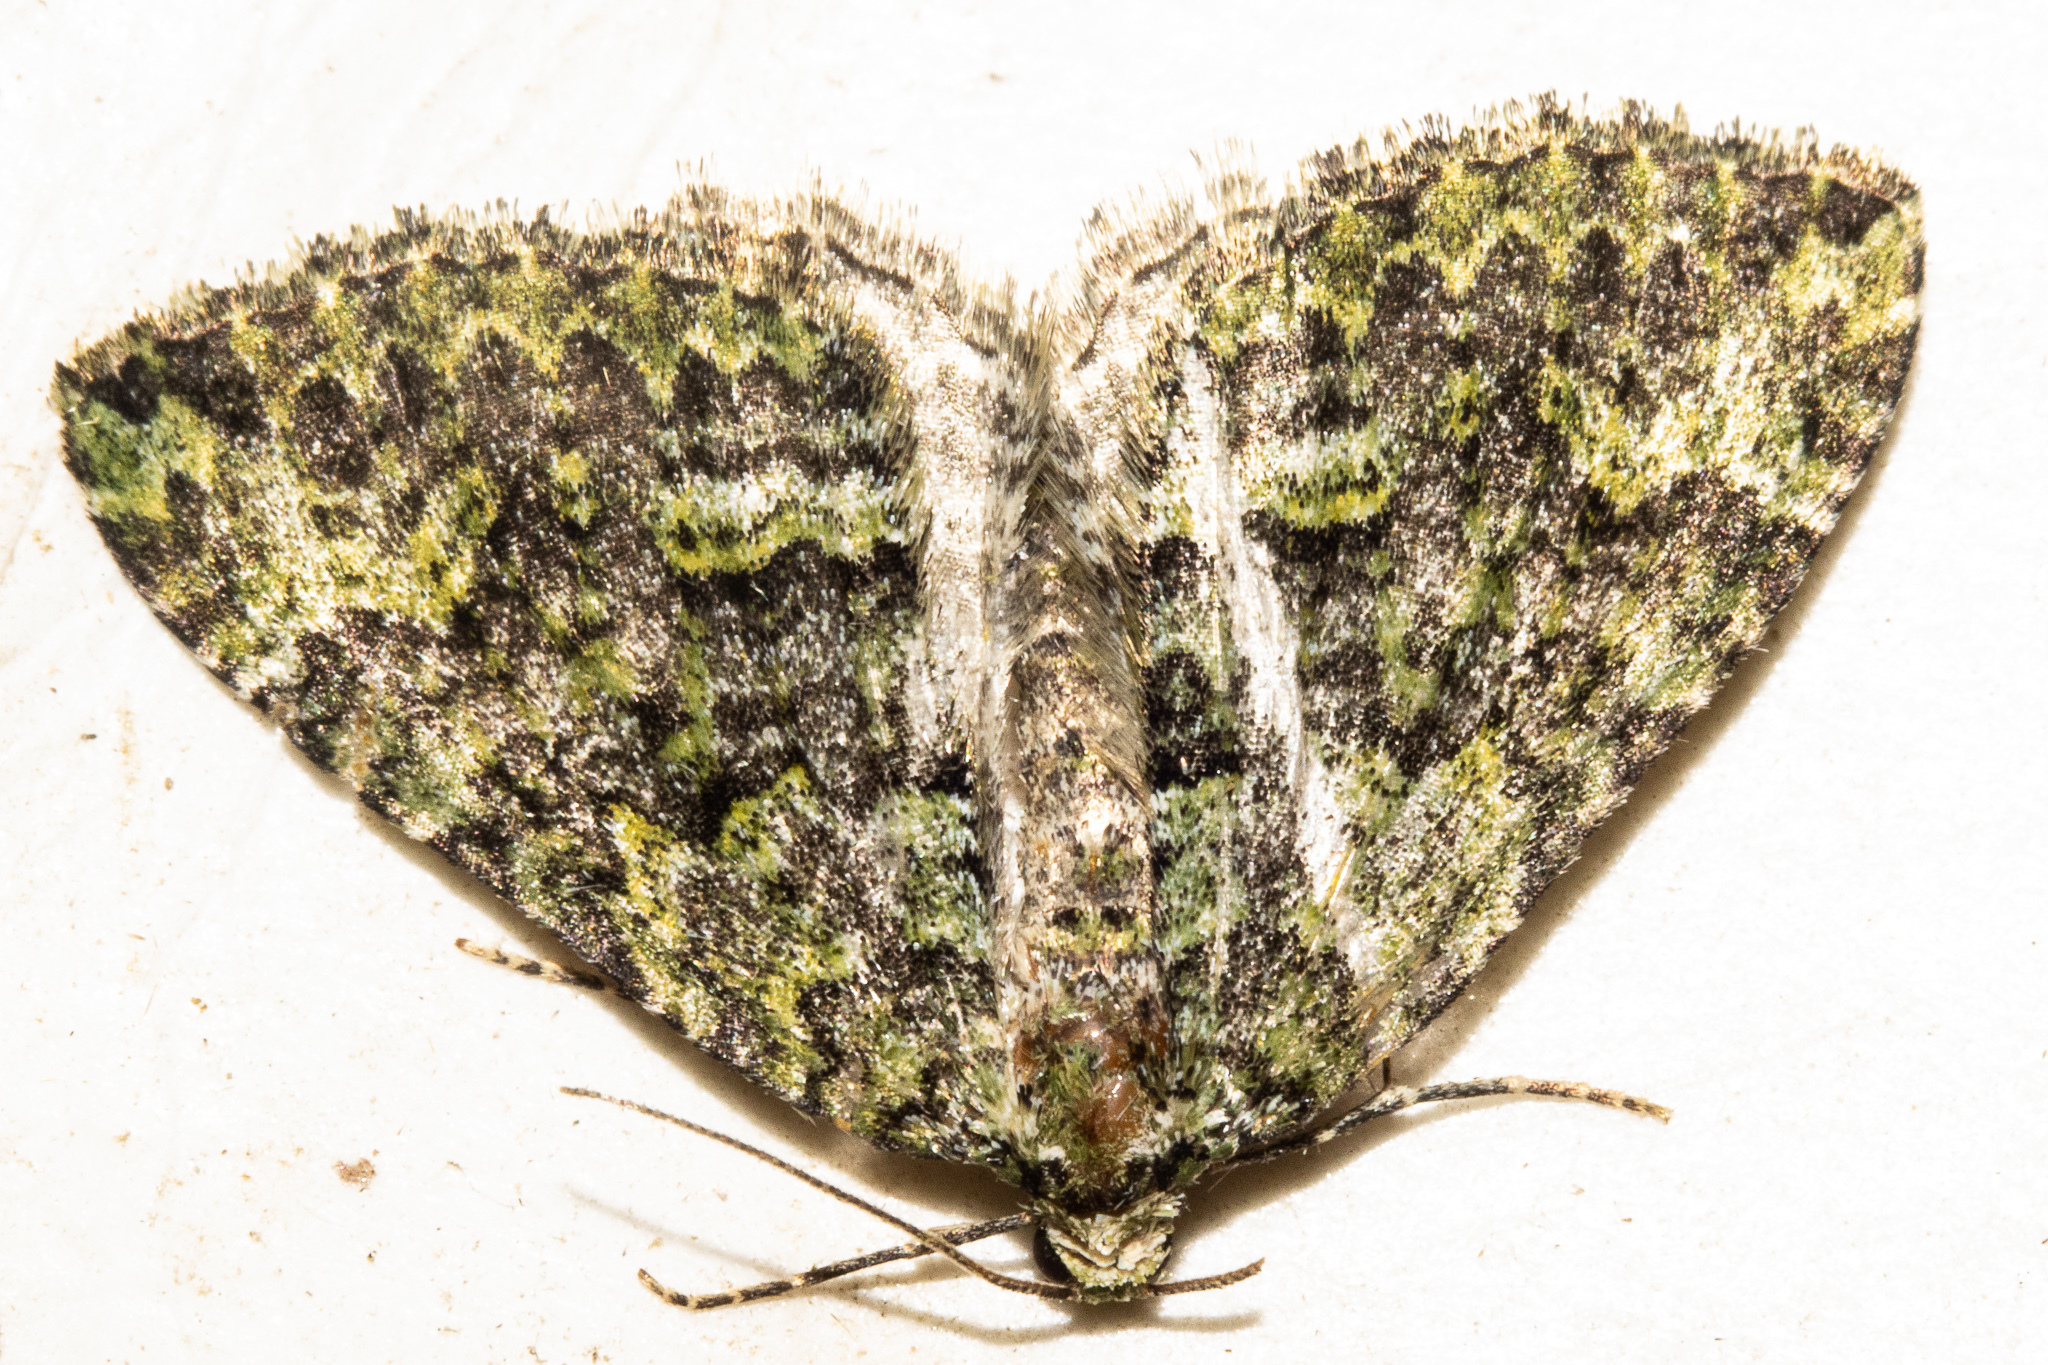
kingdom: Animalia
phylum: Arthropoda
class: Insecta
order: Lepidoptera
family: Geometridae
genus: Austrocidaria
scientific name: Austrocidaria callichlora
